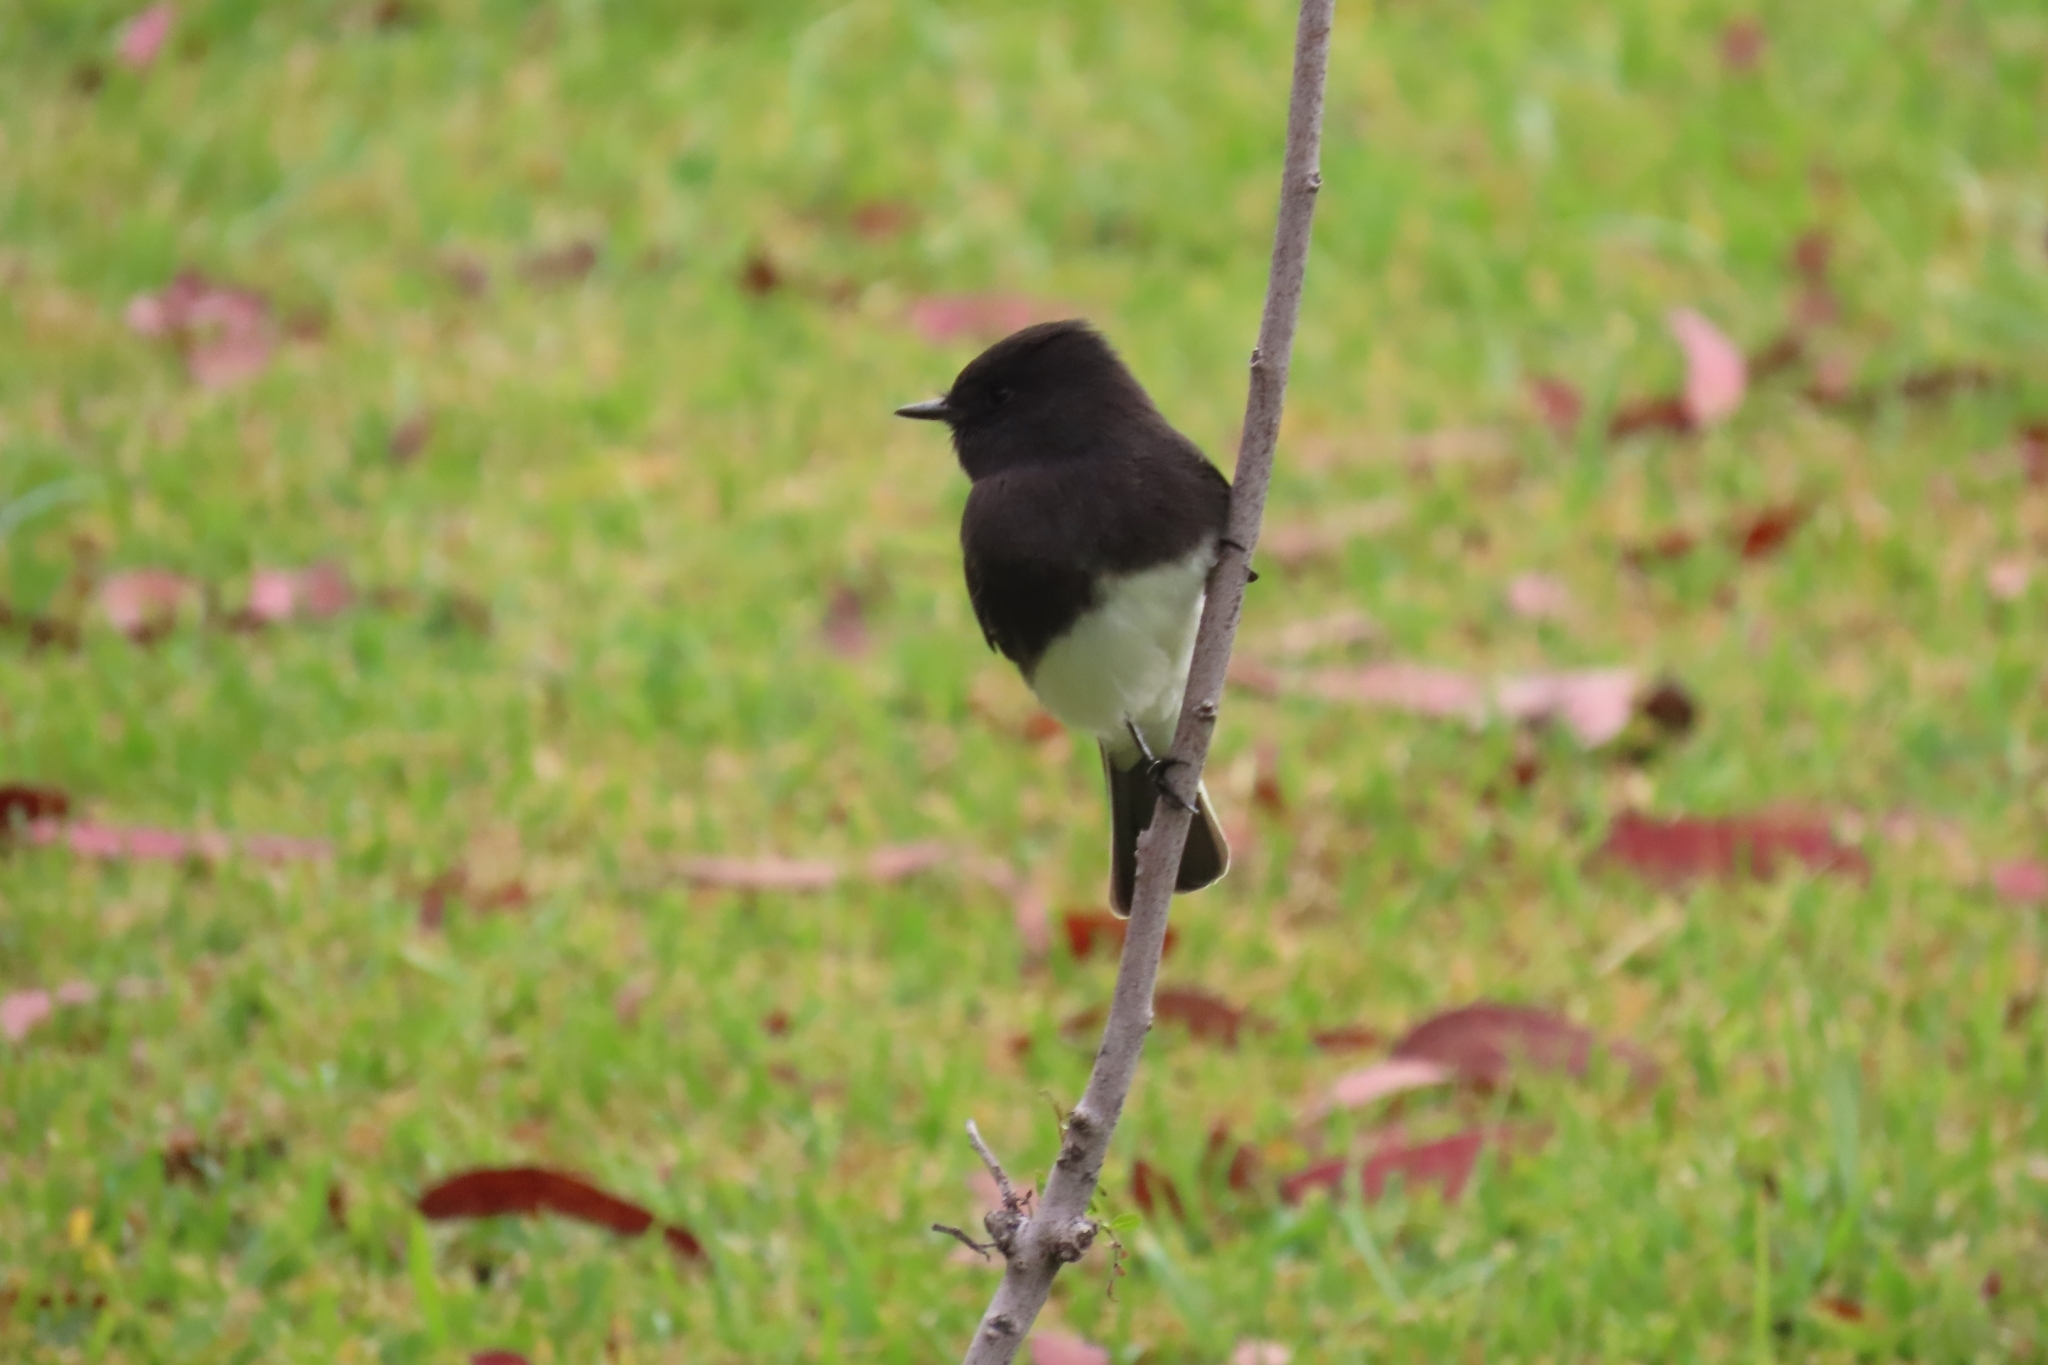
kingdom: Animalia
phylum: Chordata
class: Aves
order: Passeriformes
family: Tyrannidae
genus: Sayornis
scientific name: Sayornis nigricans
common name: Black phoebe
